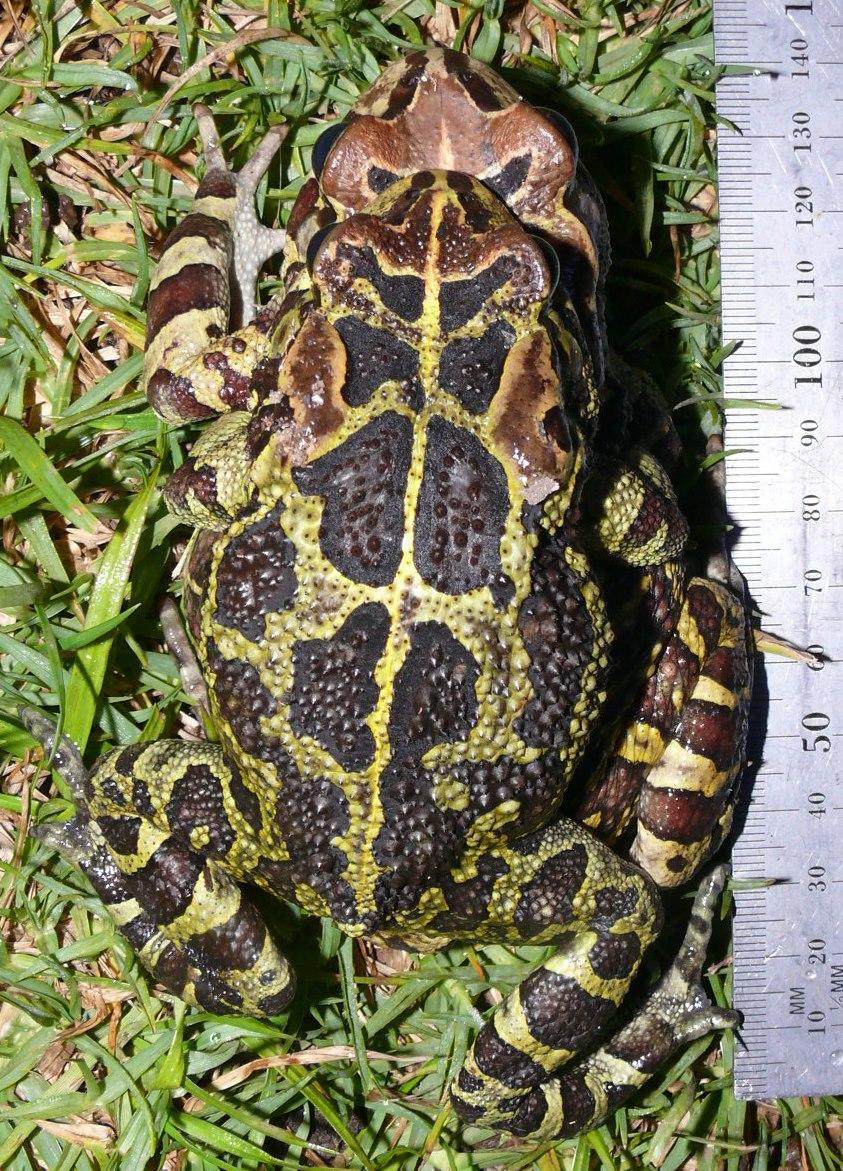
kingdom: Animalia
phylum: Chordata
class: Amphibia
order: Anura
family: Bufonidae
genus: Sclerophrys
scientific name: Sclerophrys pantherina
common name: Panther toad
